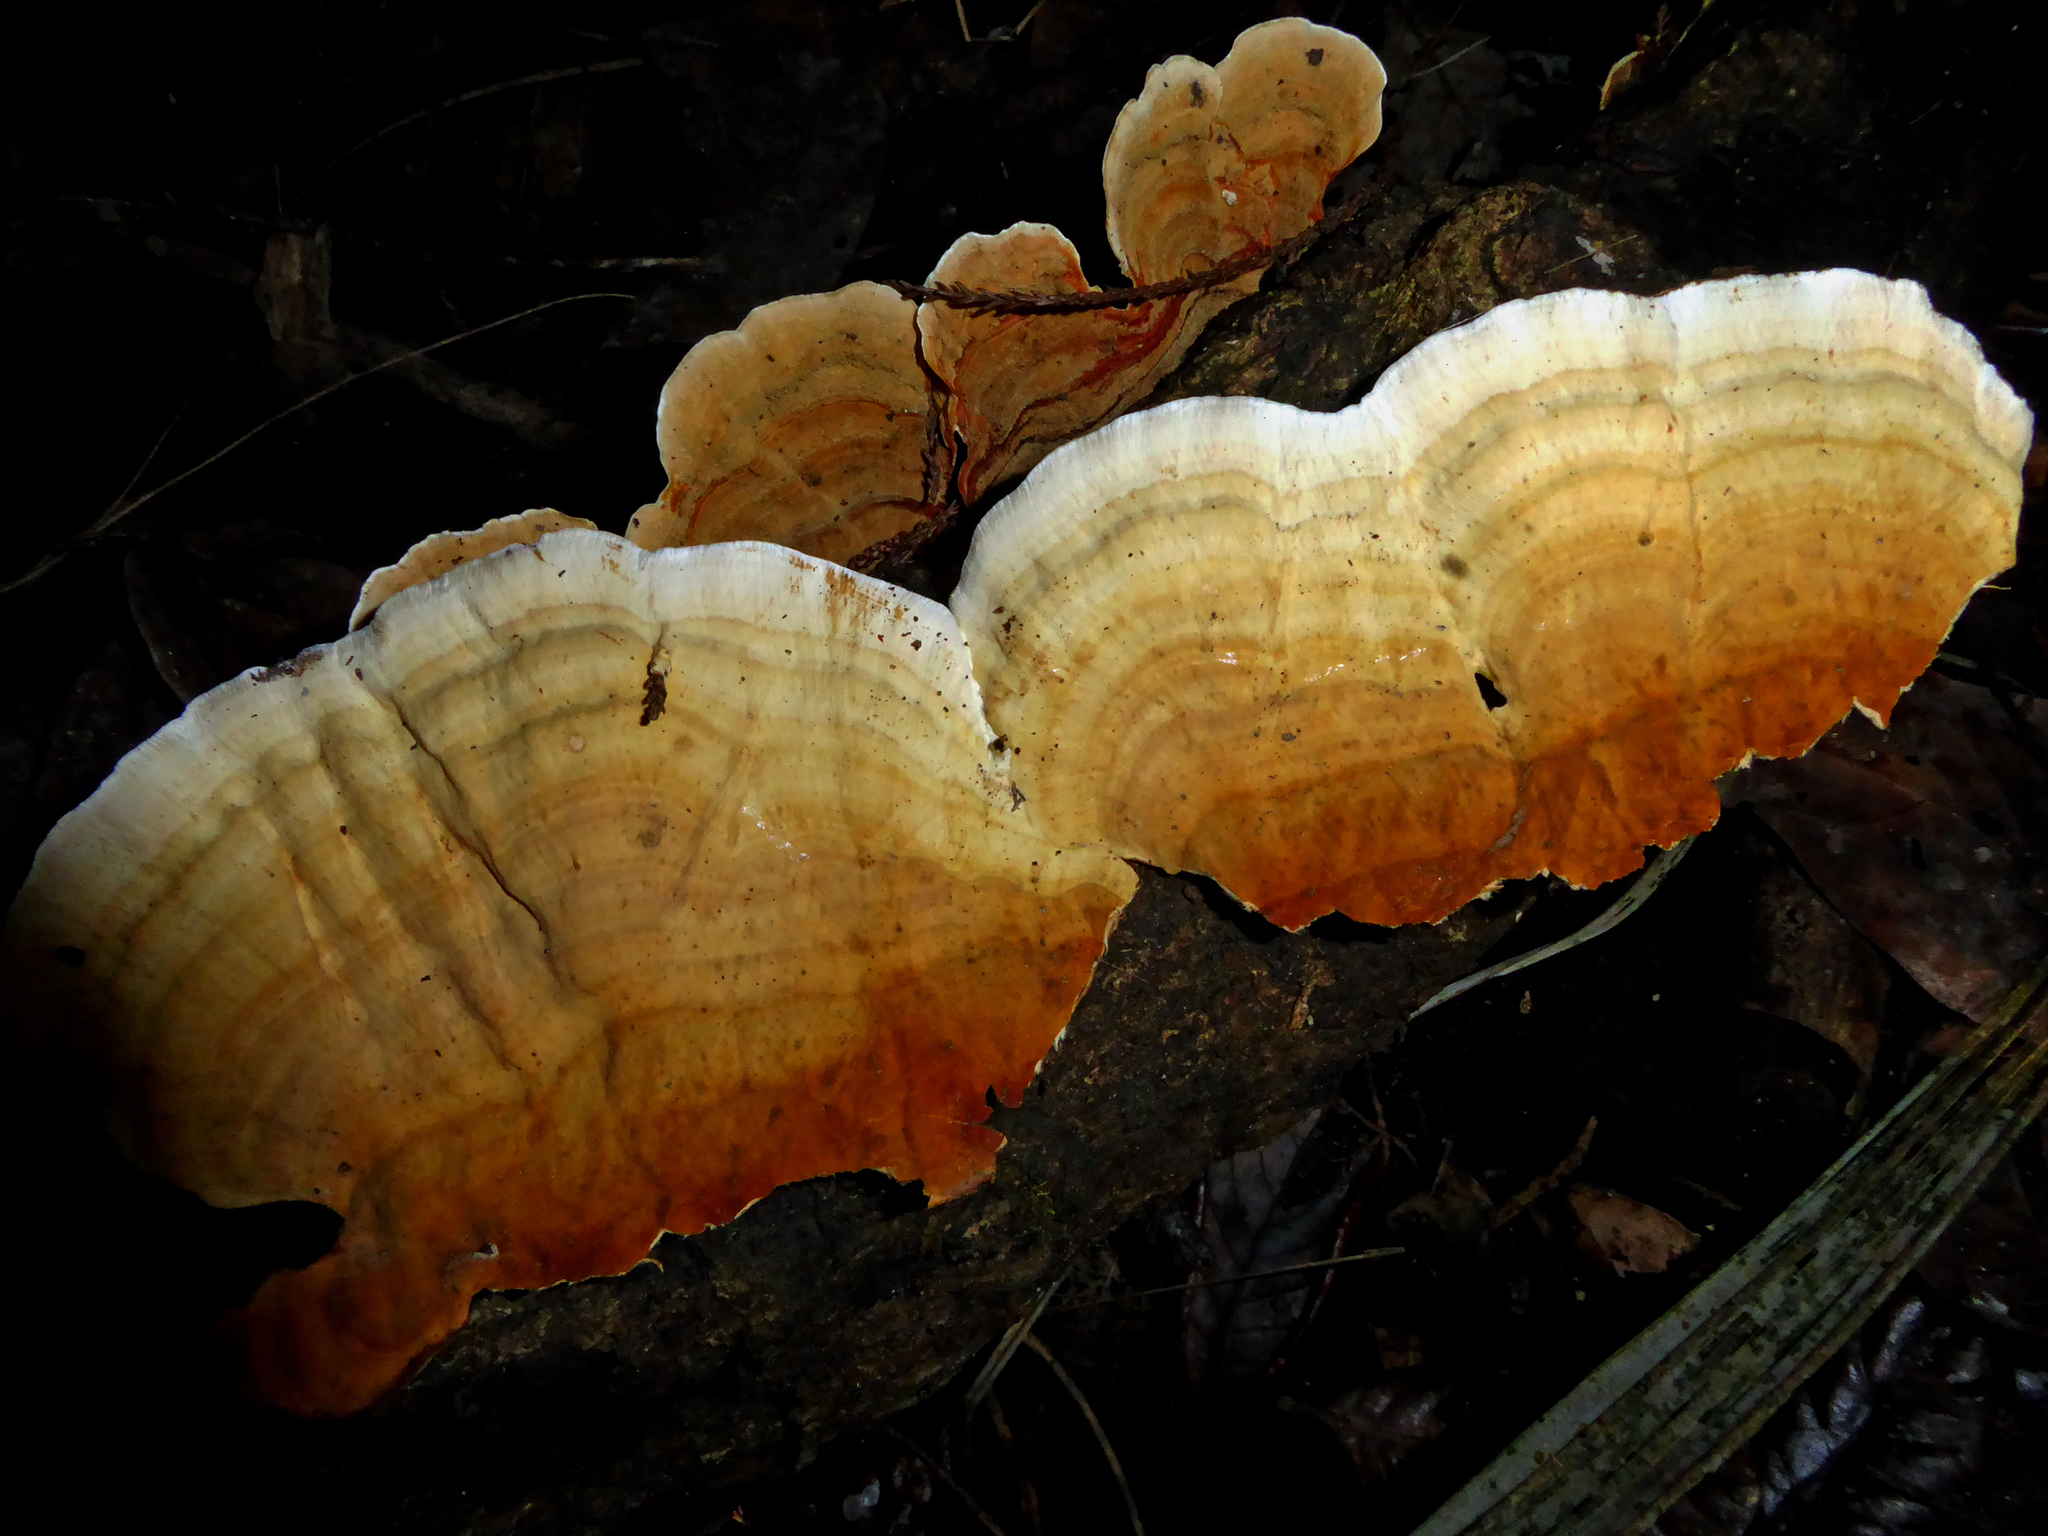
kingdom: Fungi
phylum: Basidiomycota
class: Agaricomycetes
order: Russulales
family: Stereaceae
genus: Stereum
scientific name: Stereum ostrea
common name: False turkeytail
